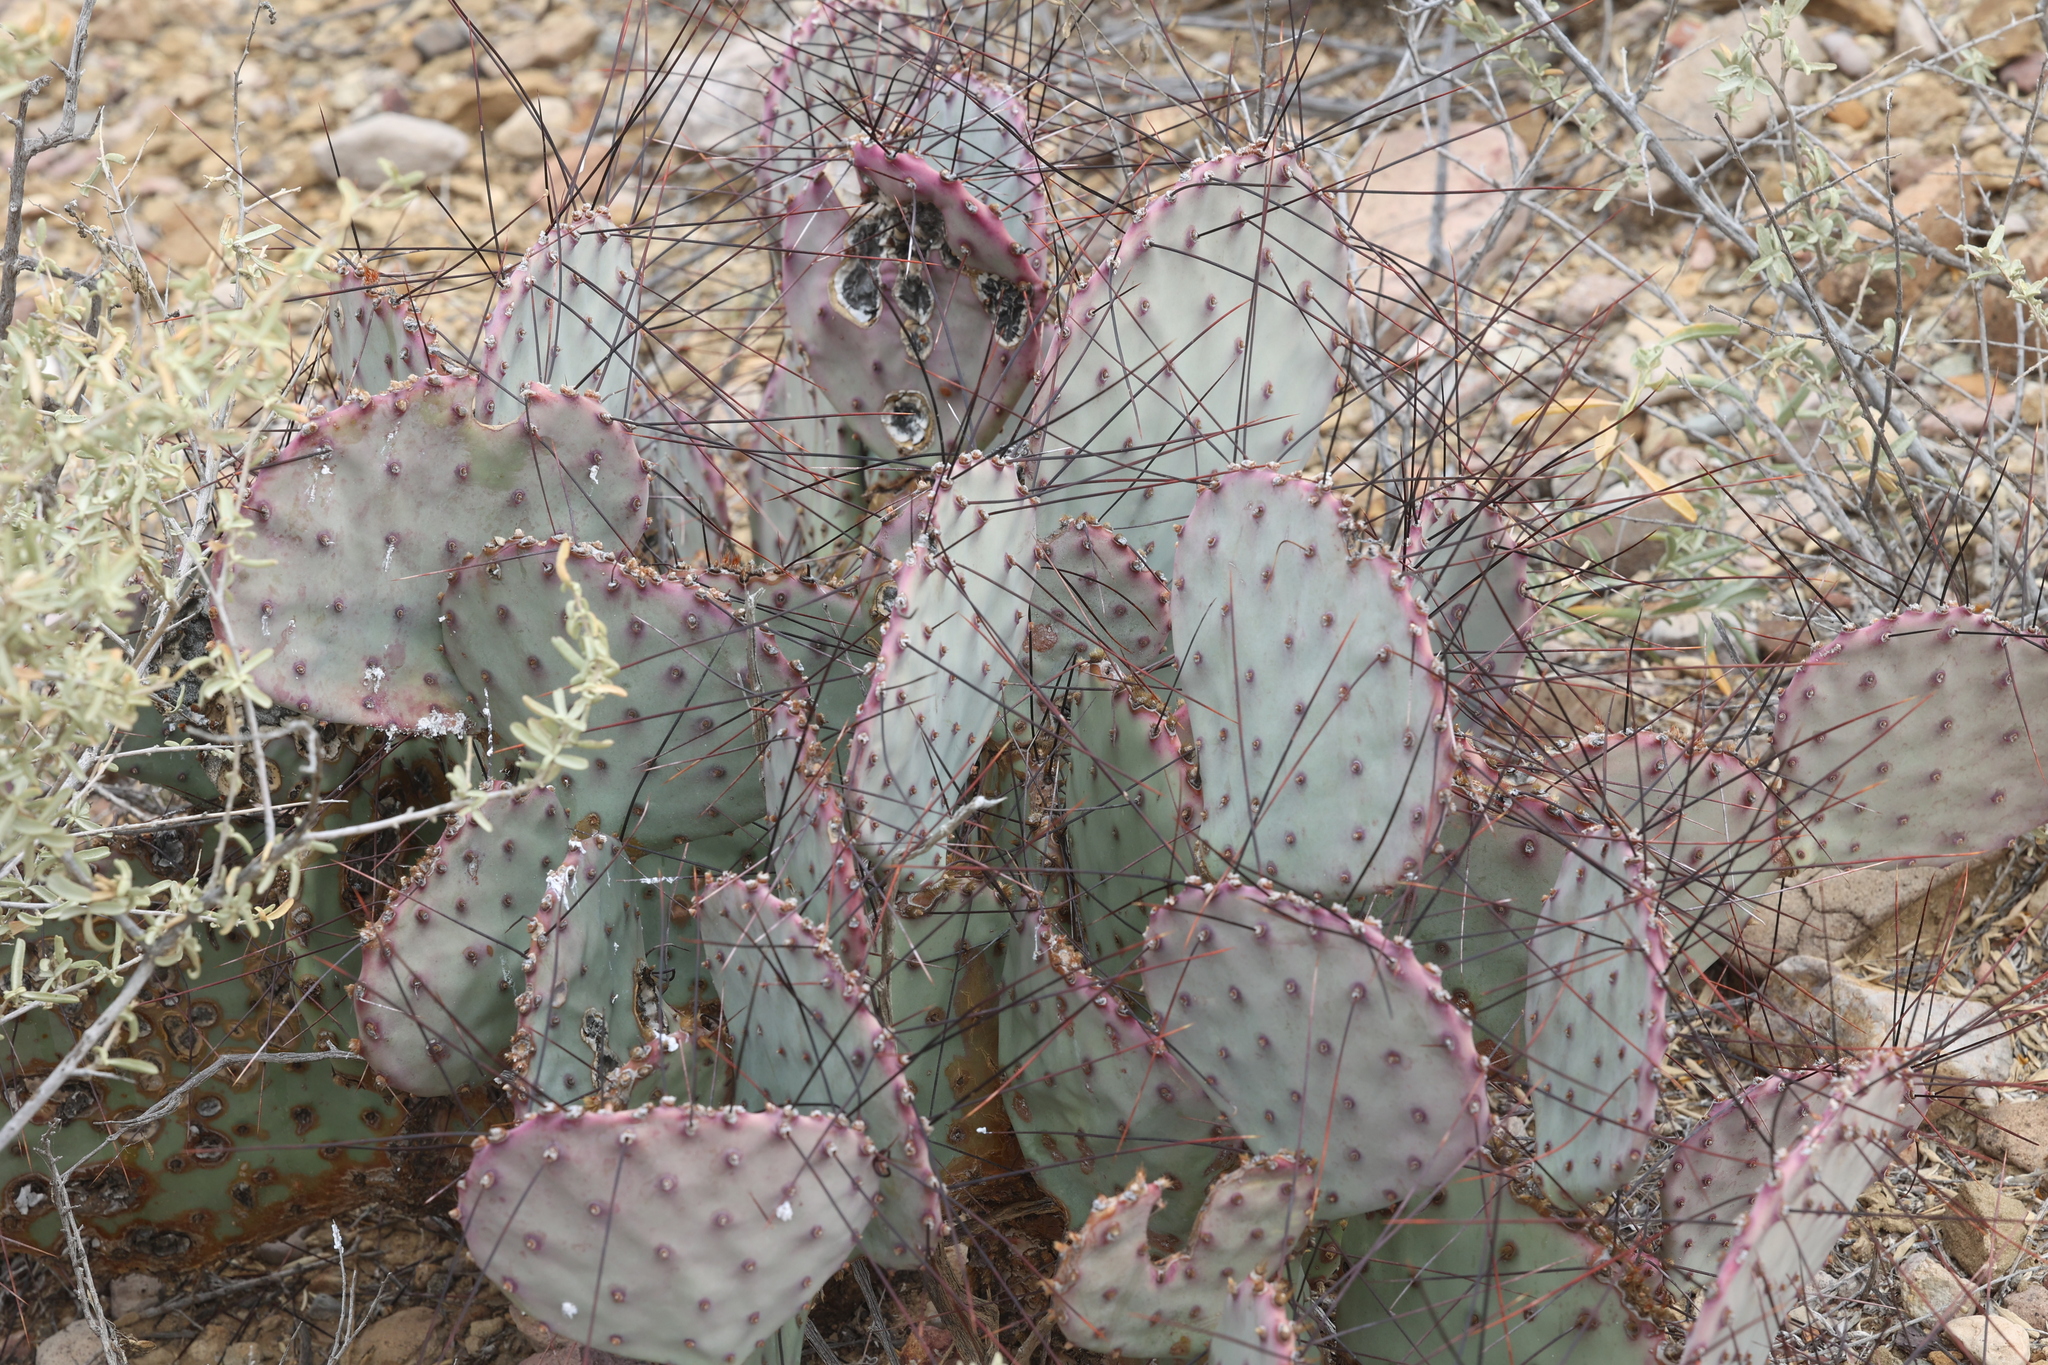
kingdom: Plantae
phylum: Tracheophyta
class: Magnoliopsida
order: Caryophyllales
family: Cactaceae
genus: Opuntia
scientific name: Opuntia phaeacantha
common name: New mexico prickly-pear
